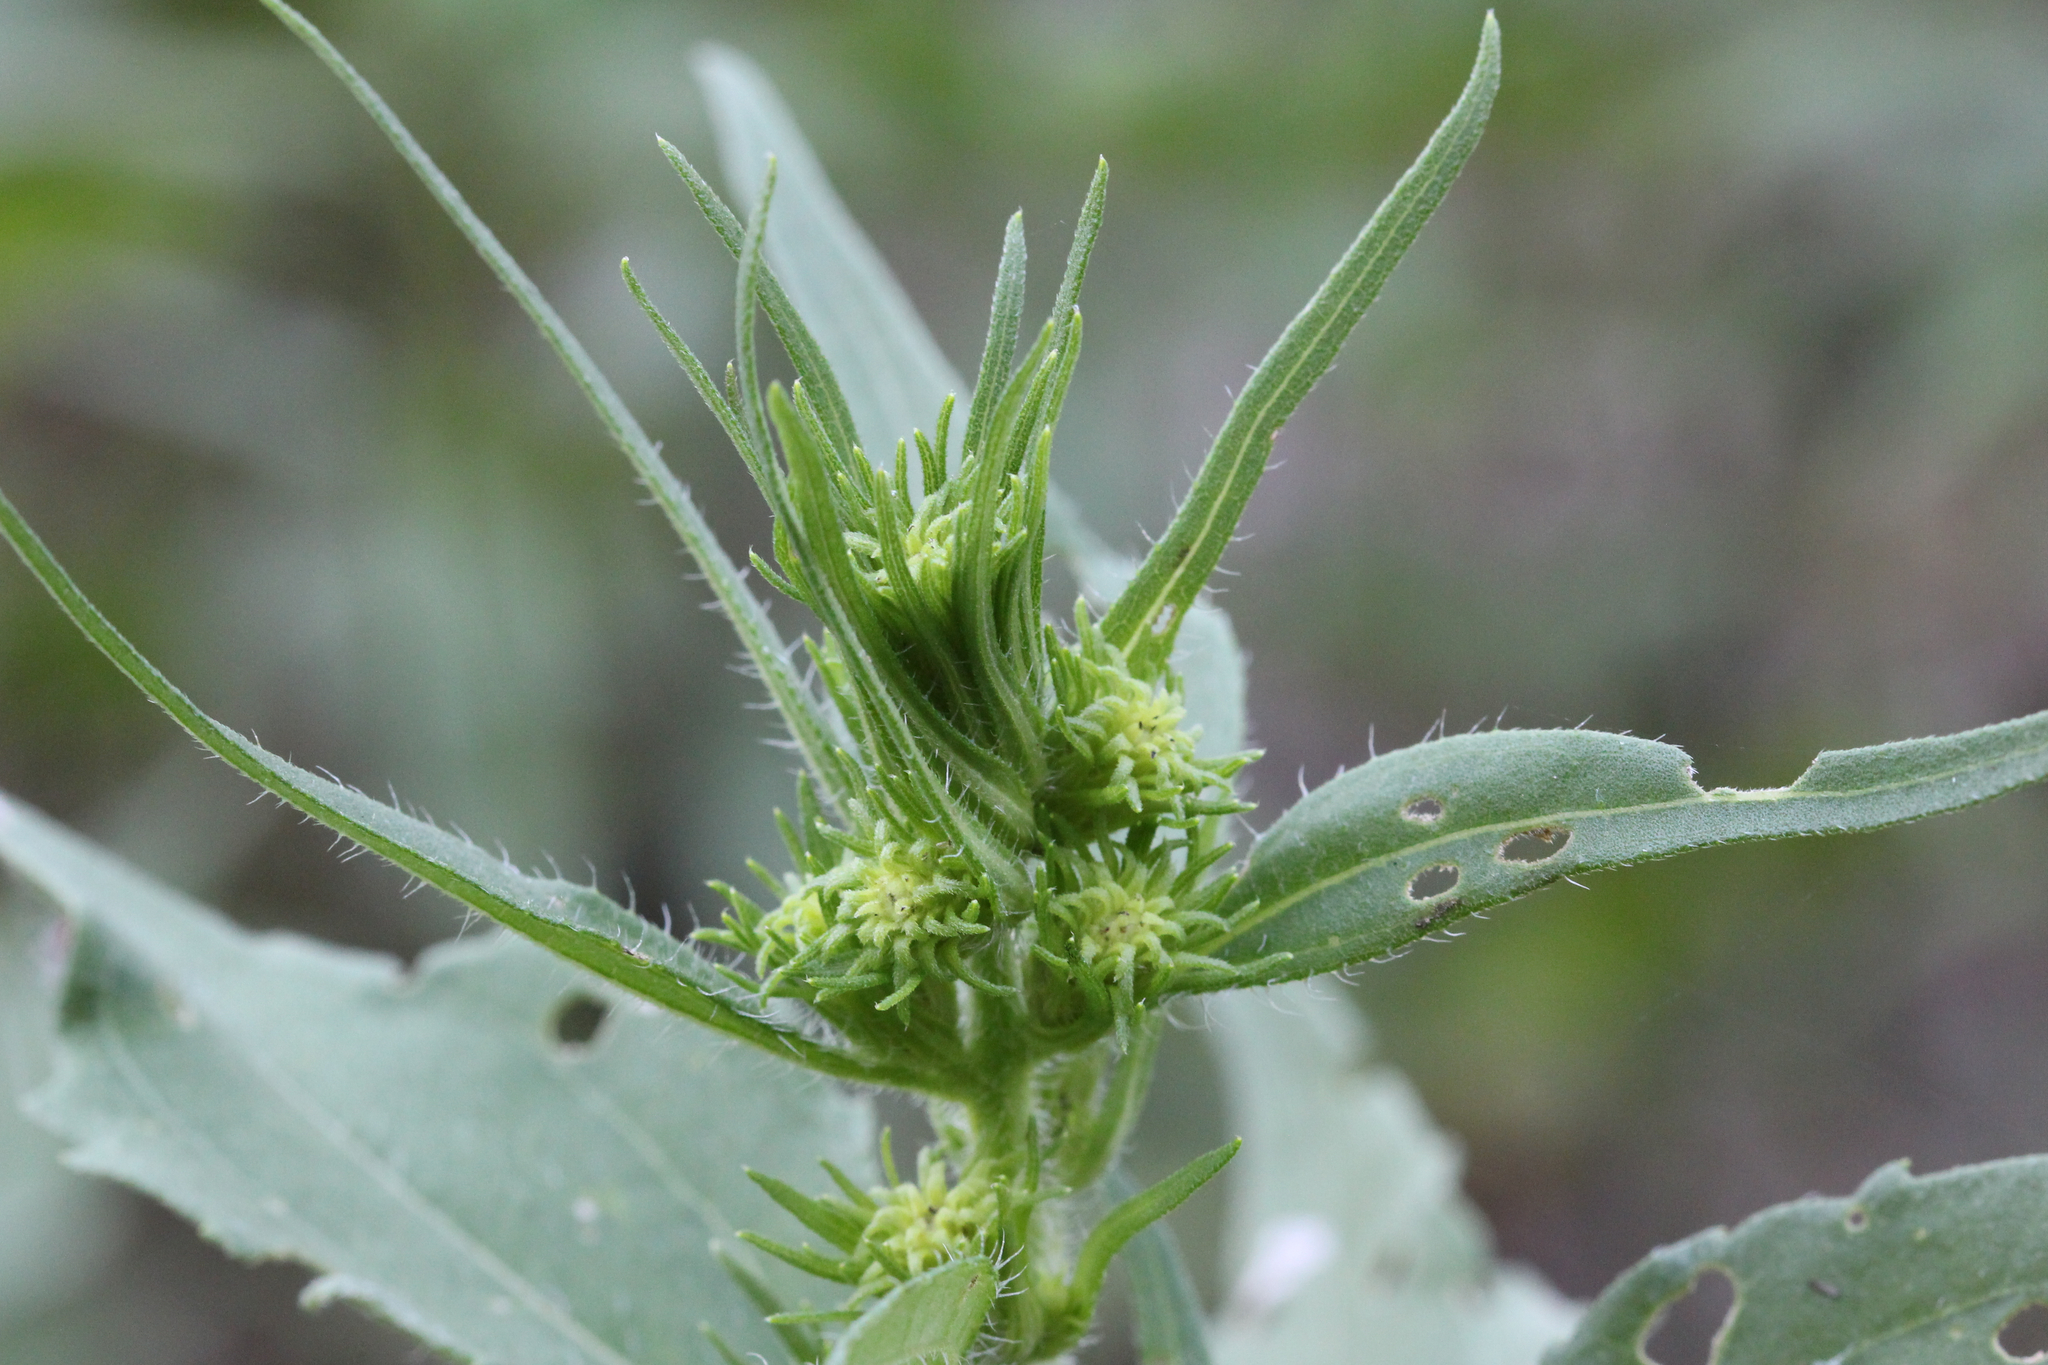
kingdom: Plantae
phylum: Tracheophyta
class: Magnoliopsida
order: Asterales
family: Asteraceae
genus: Iva
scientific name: Iva annua
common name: Marsh-elder
